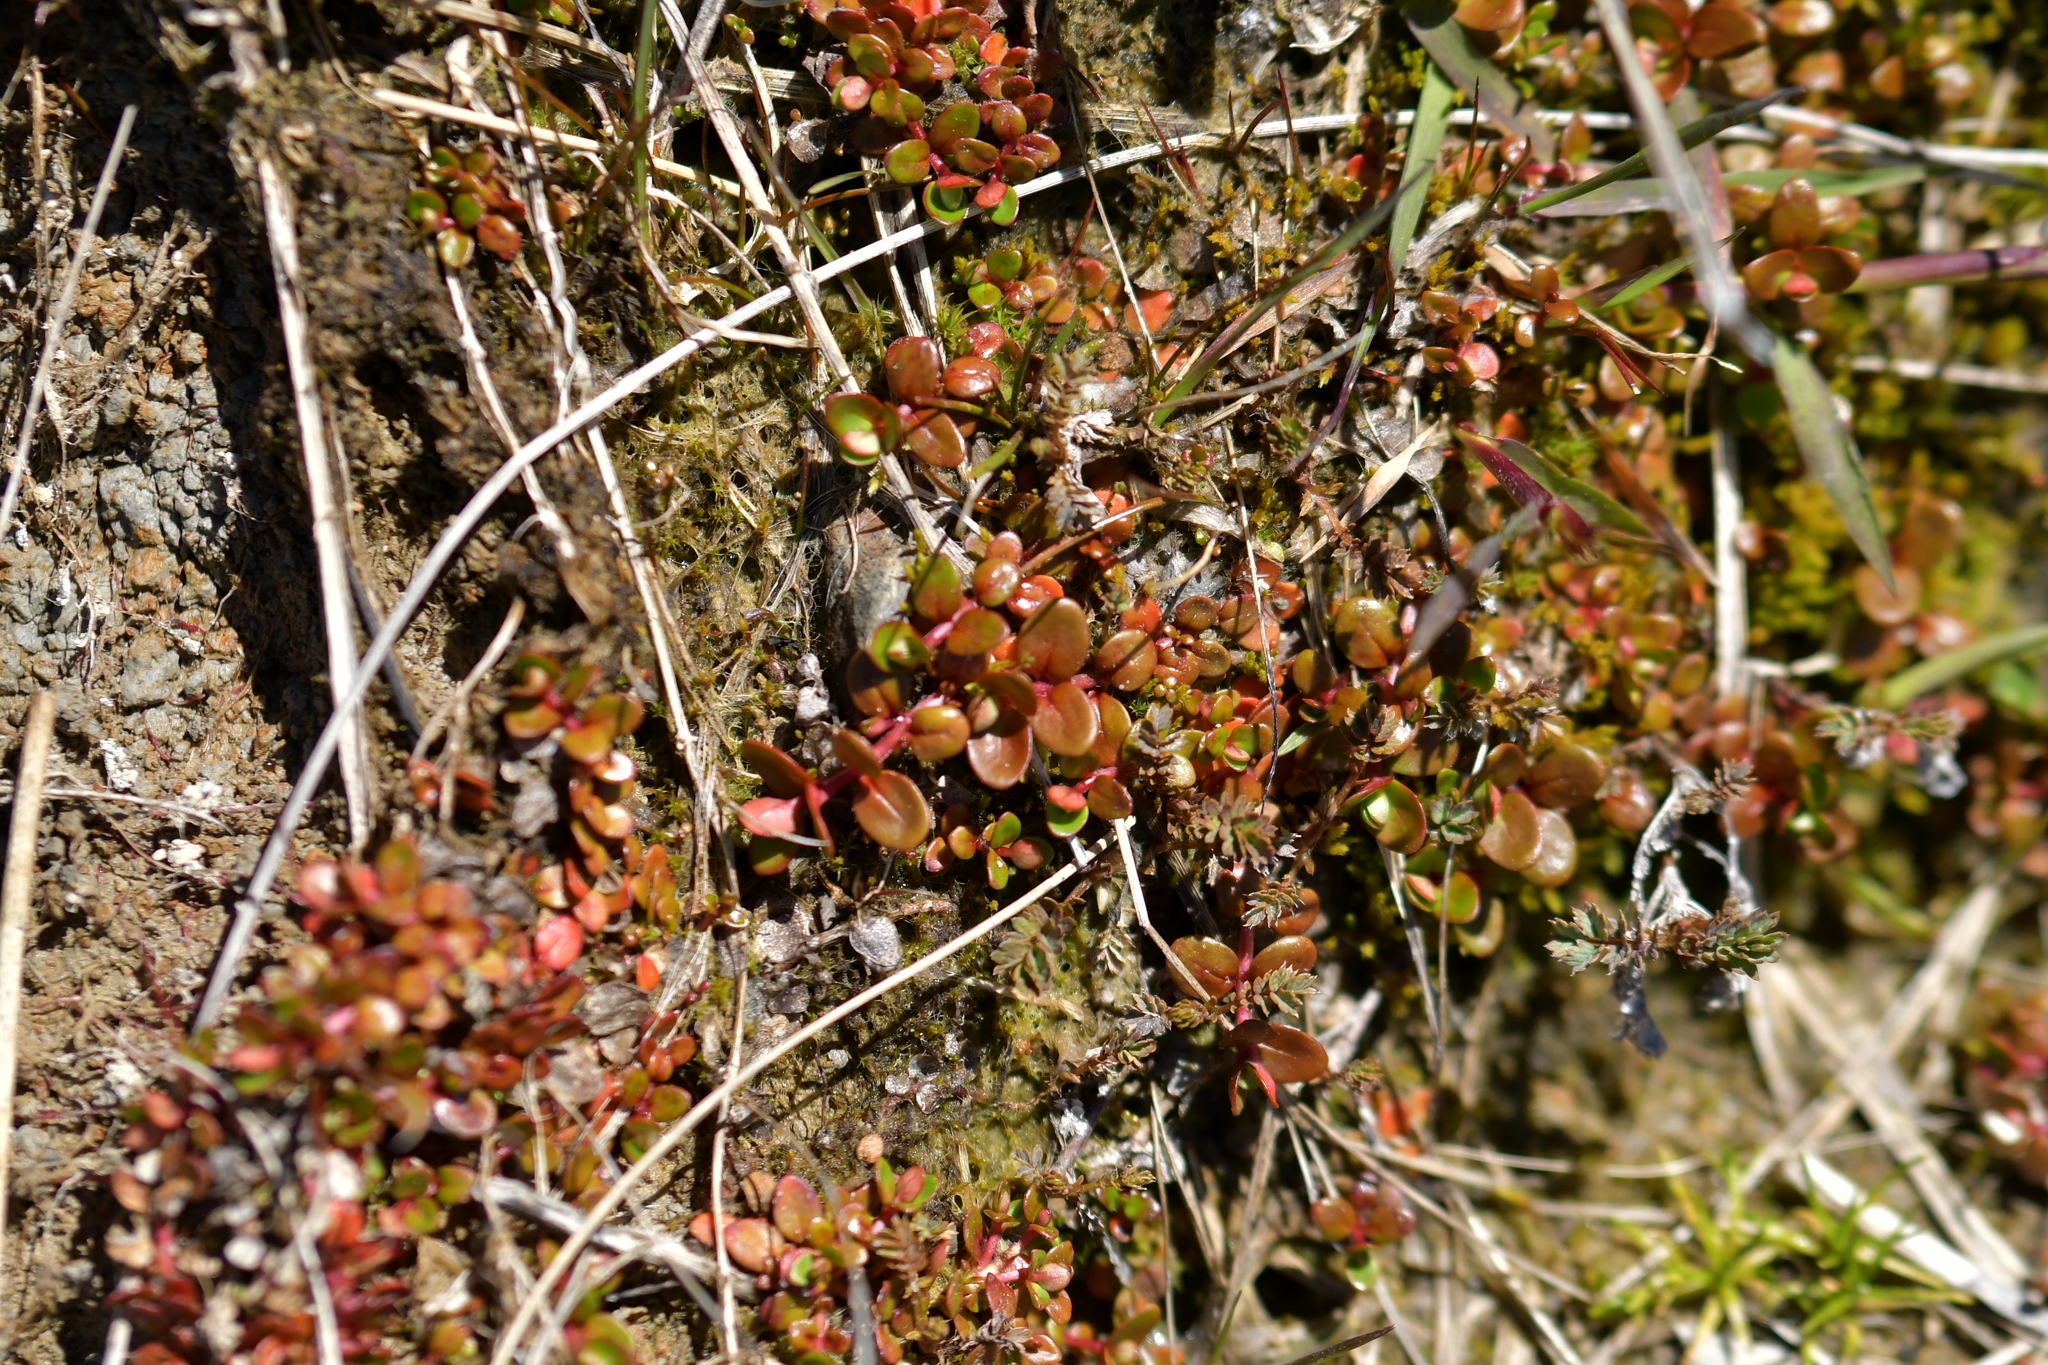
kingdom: Plantae
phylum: Tracheophyta
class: Magnoliopsida
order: Myrtales
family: Onagraceae
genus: Epilobium
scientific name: Epilobium brunnescens
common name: New zealand willowherb
